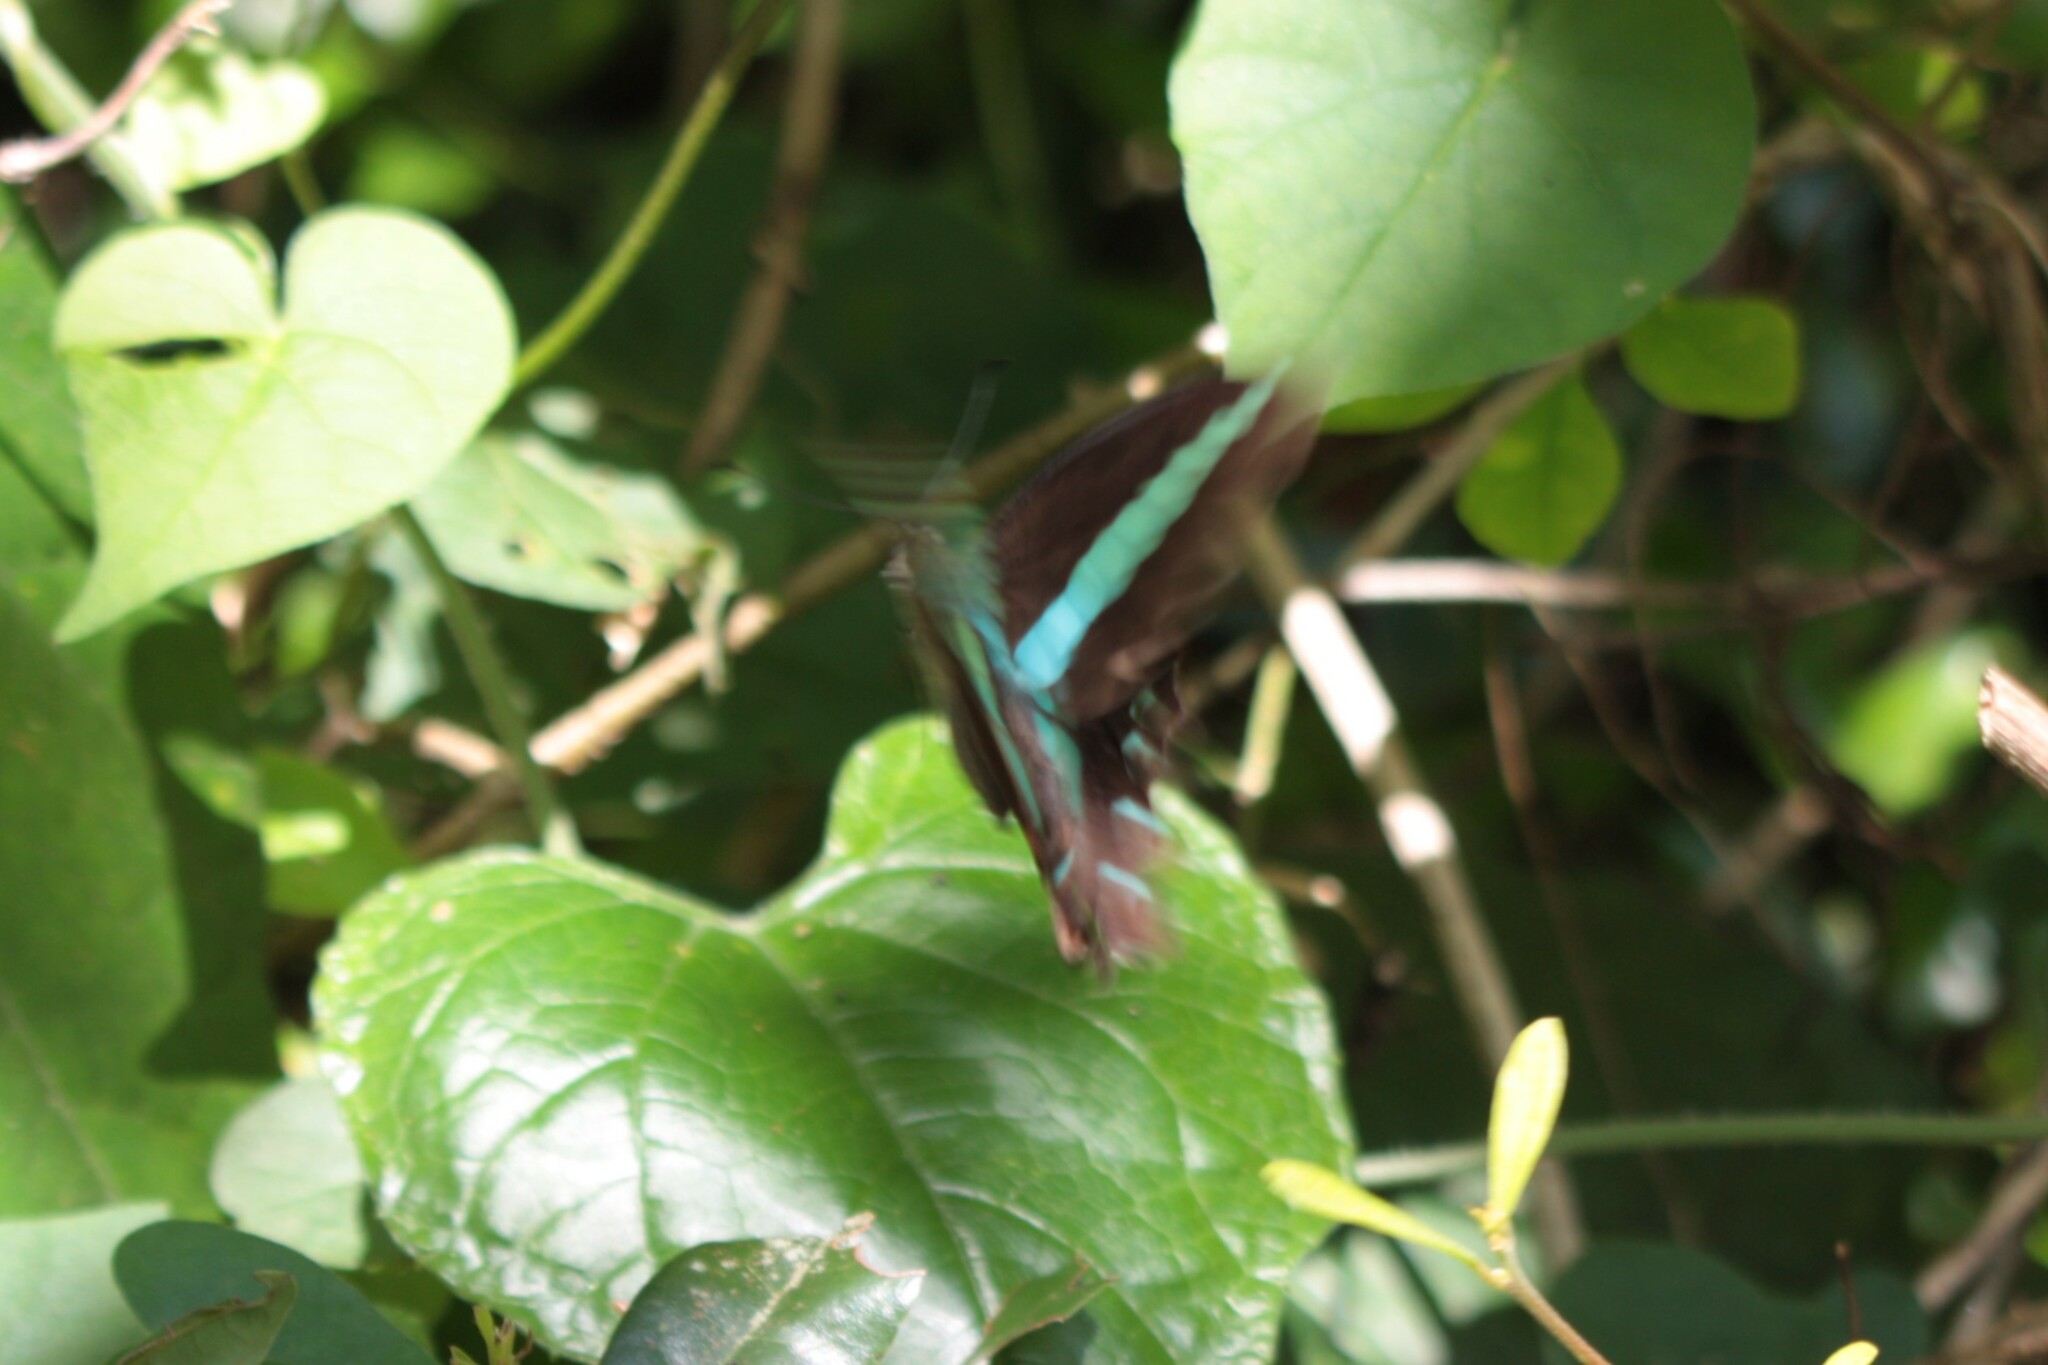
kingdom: Fungi
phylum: Ascomycota
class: Sordariomycetes
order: Microascales
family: Microascaceae
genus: Graphium
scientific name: Graphium sarpedon
